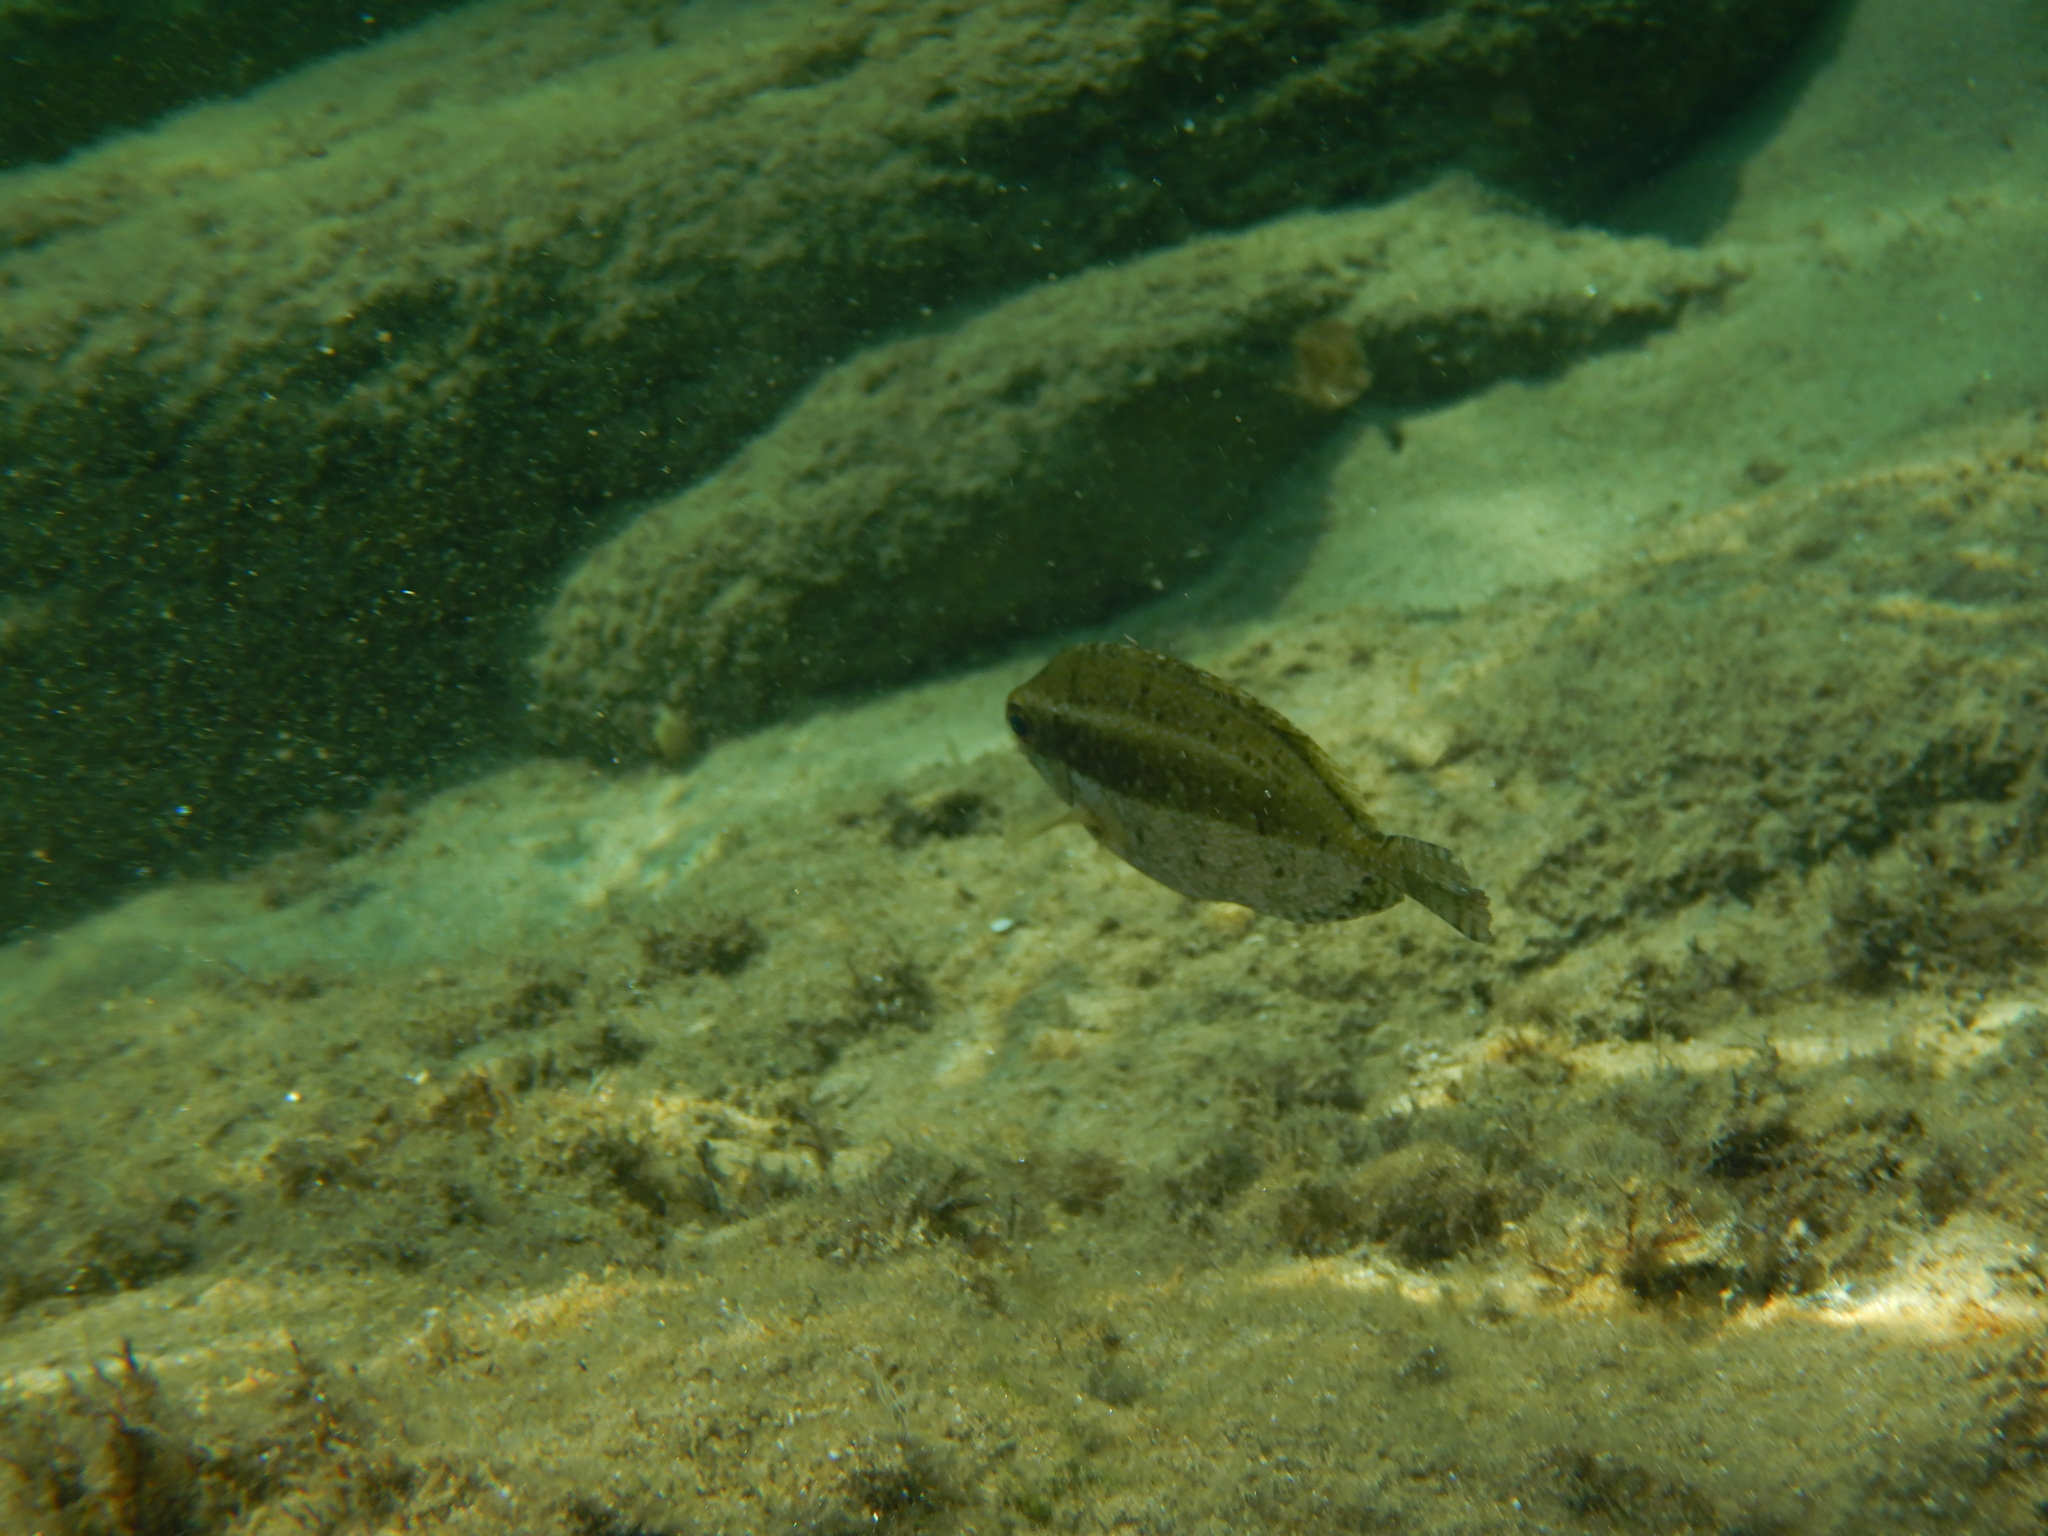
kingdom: Animalia
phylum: Chordata
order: Perciformes
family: Siganidae
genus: Siganus
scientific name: Siganus luridus
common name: Dusky spinefoot
